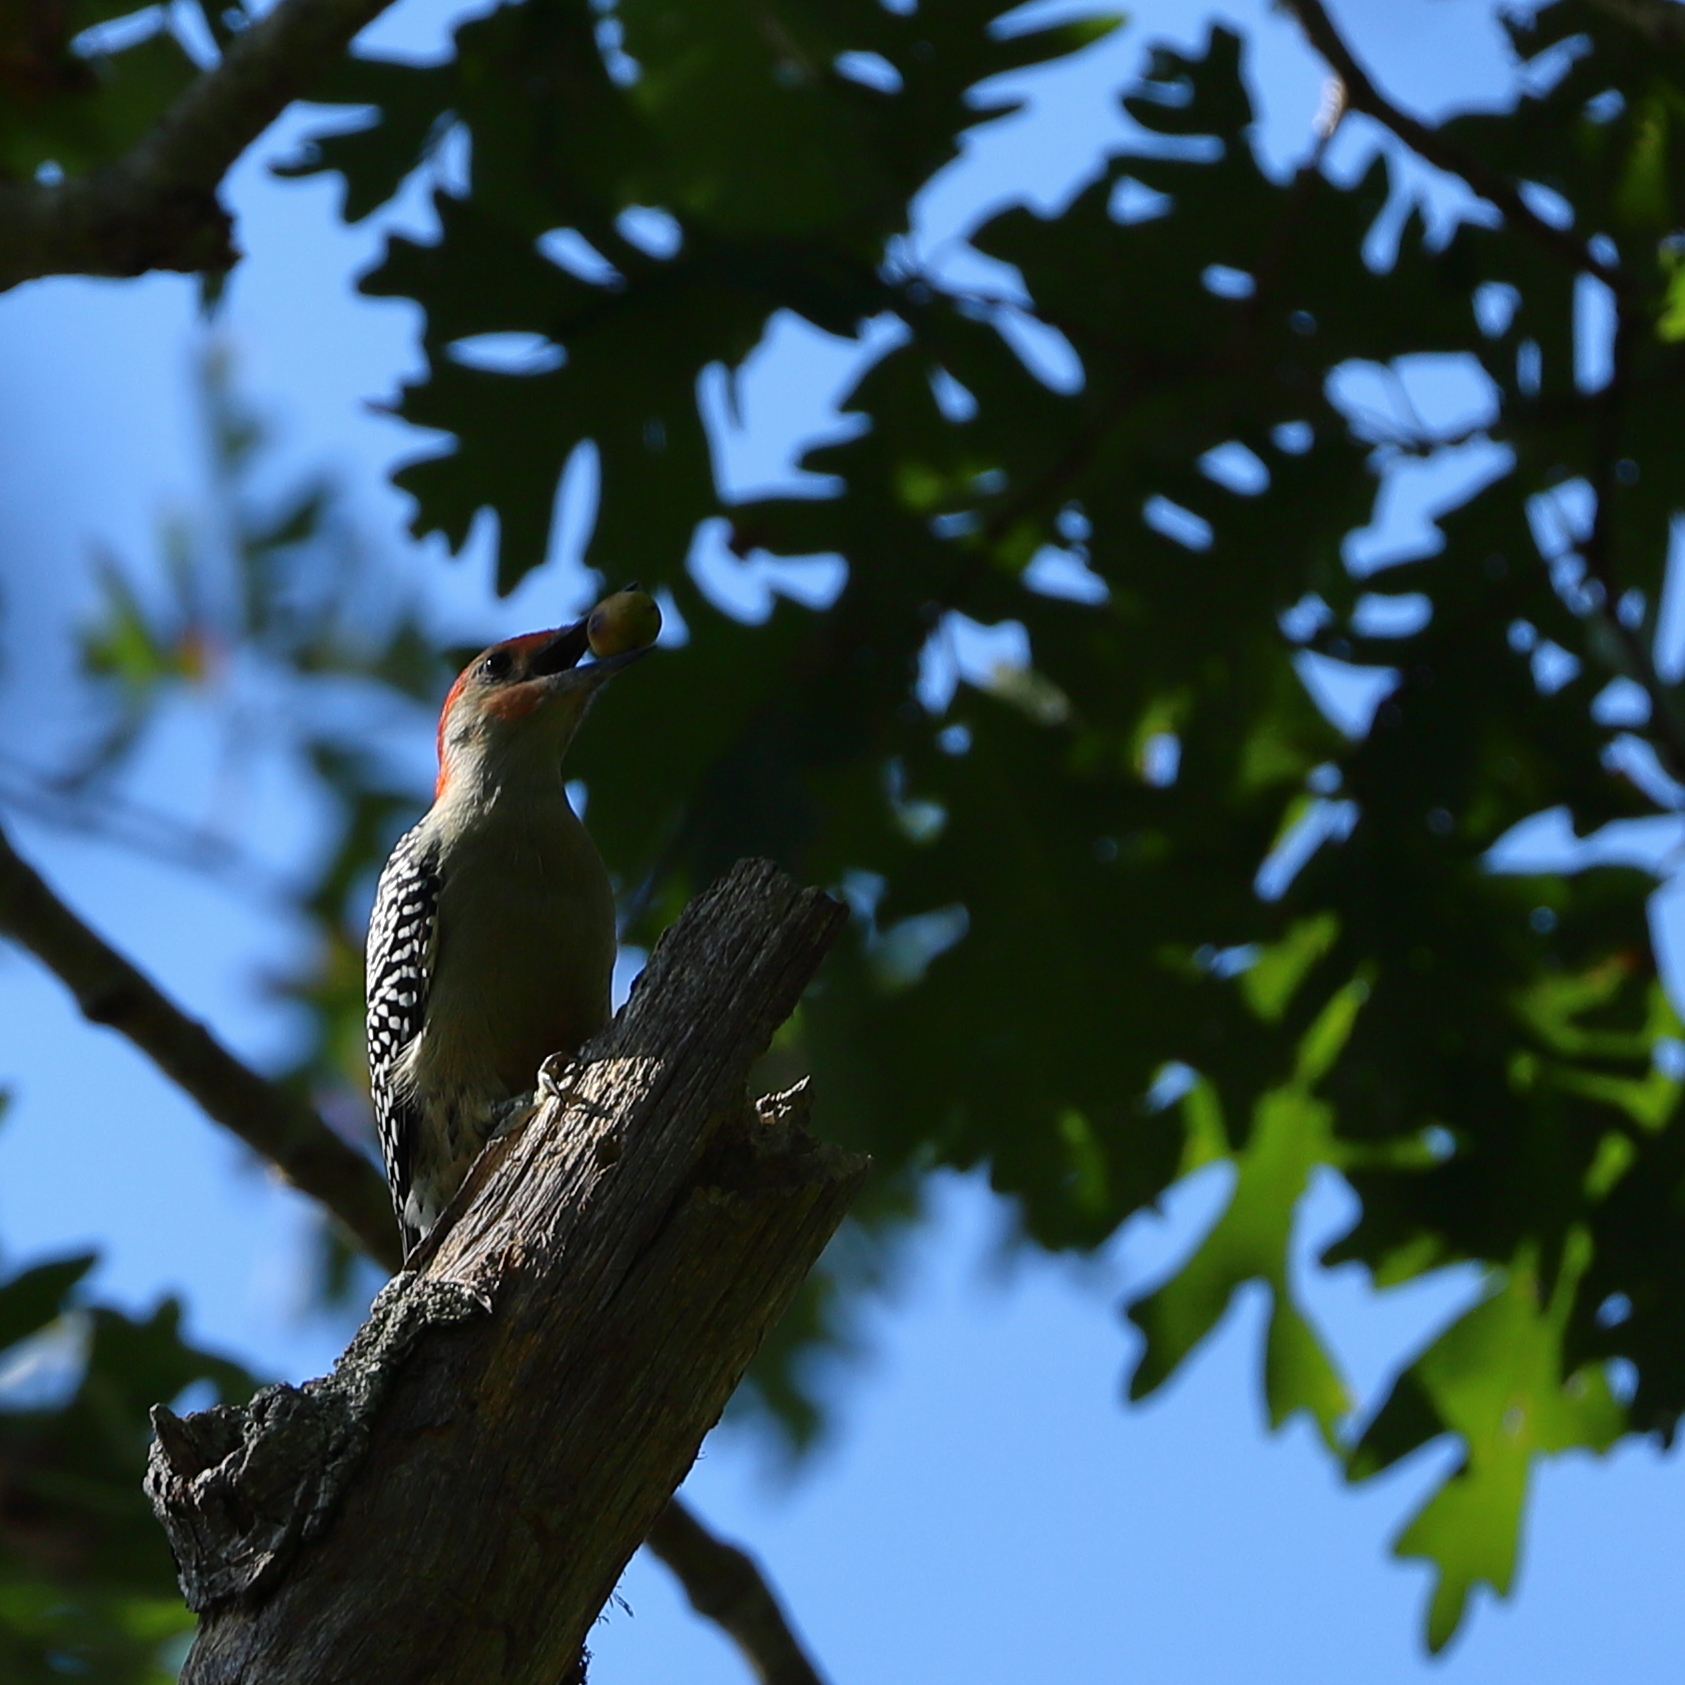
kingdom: Animalia
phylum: Chordata
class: Aves
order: Piciformes
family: Picidae
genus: Melanerpes
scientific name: Melanerpes carolinus
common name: Red-bellied woodpecker
